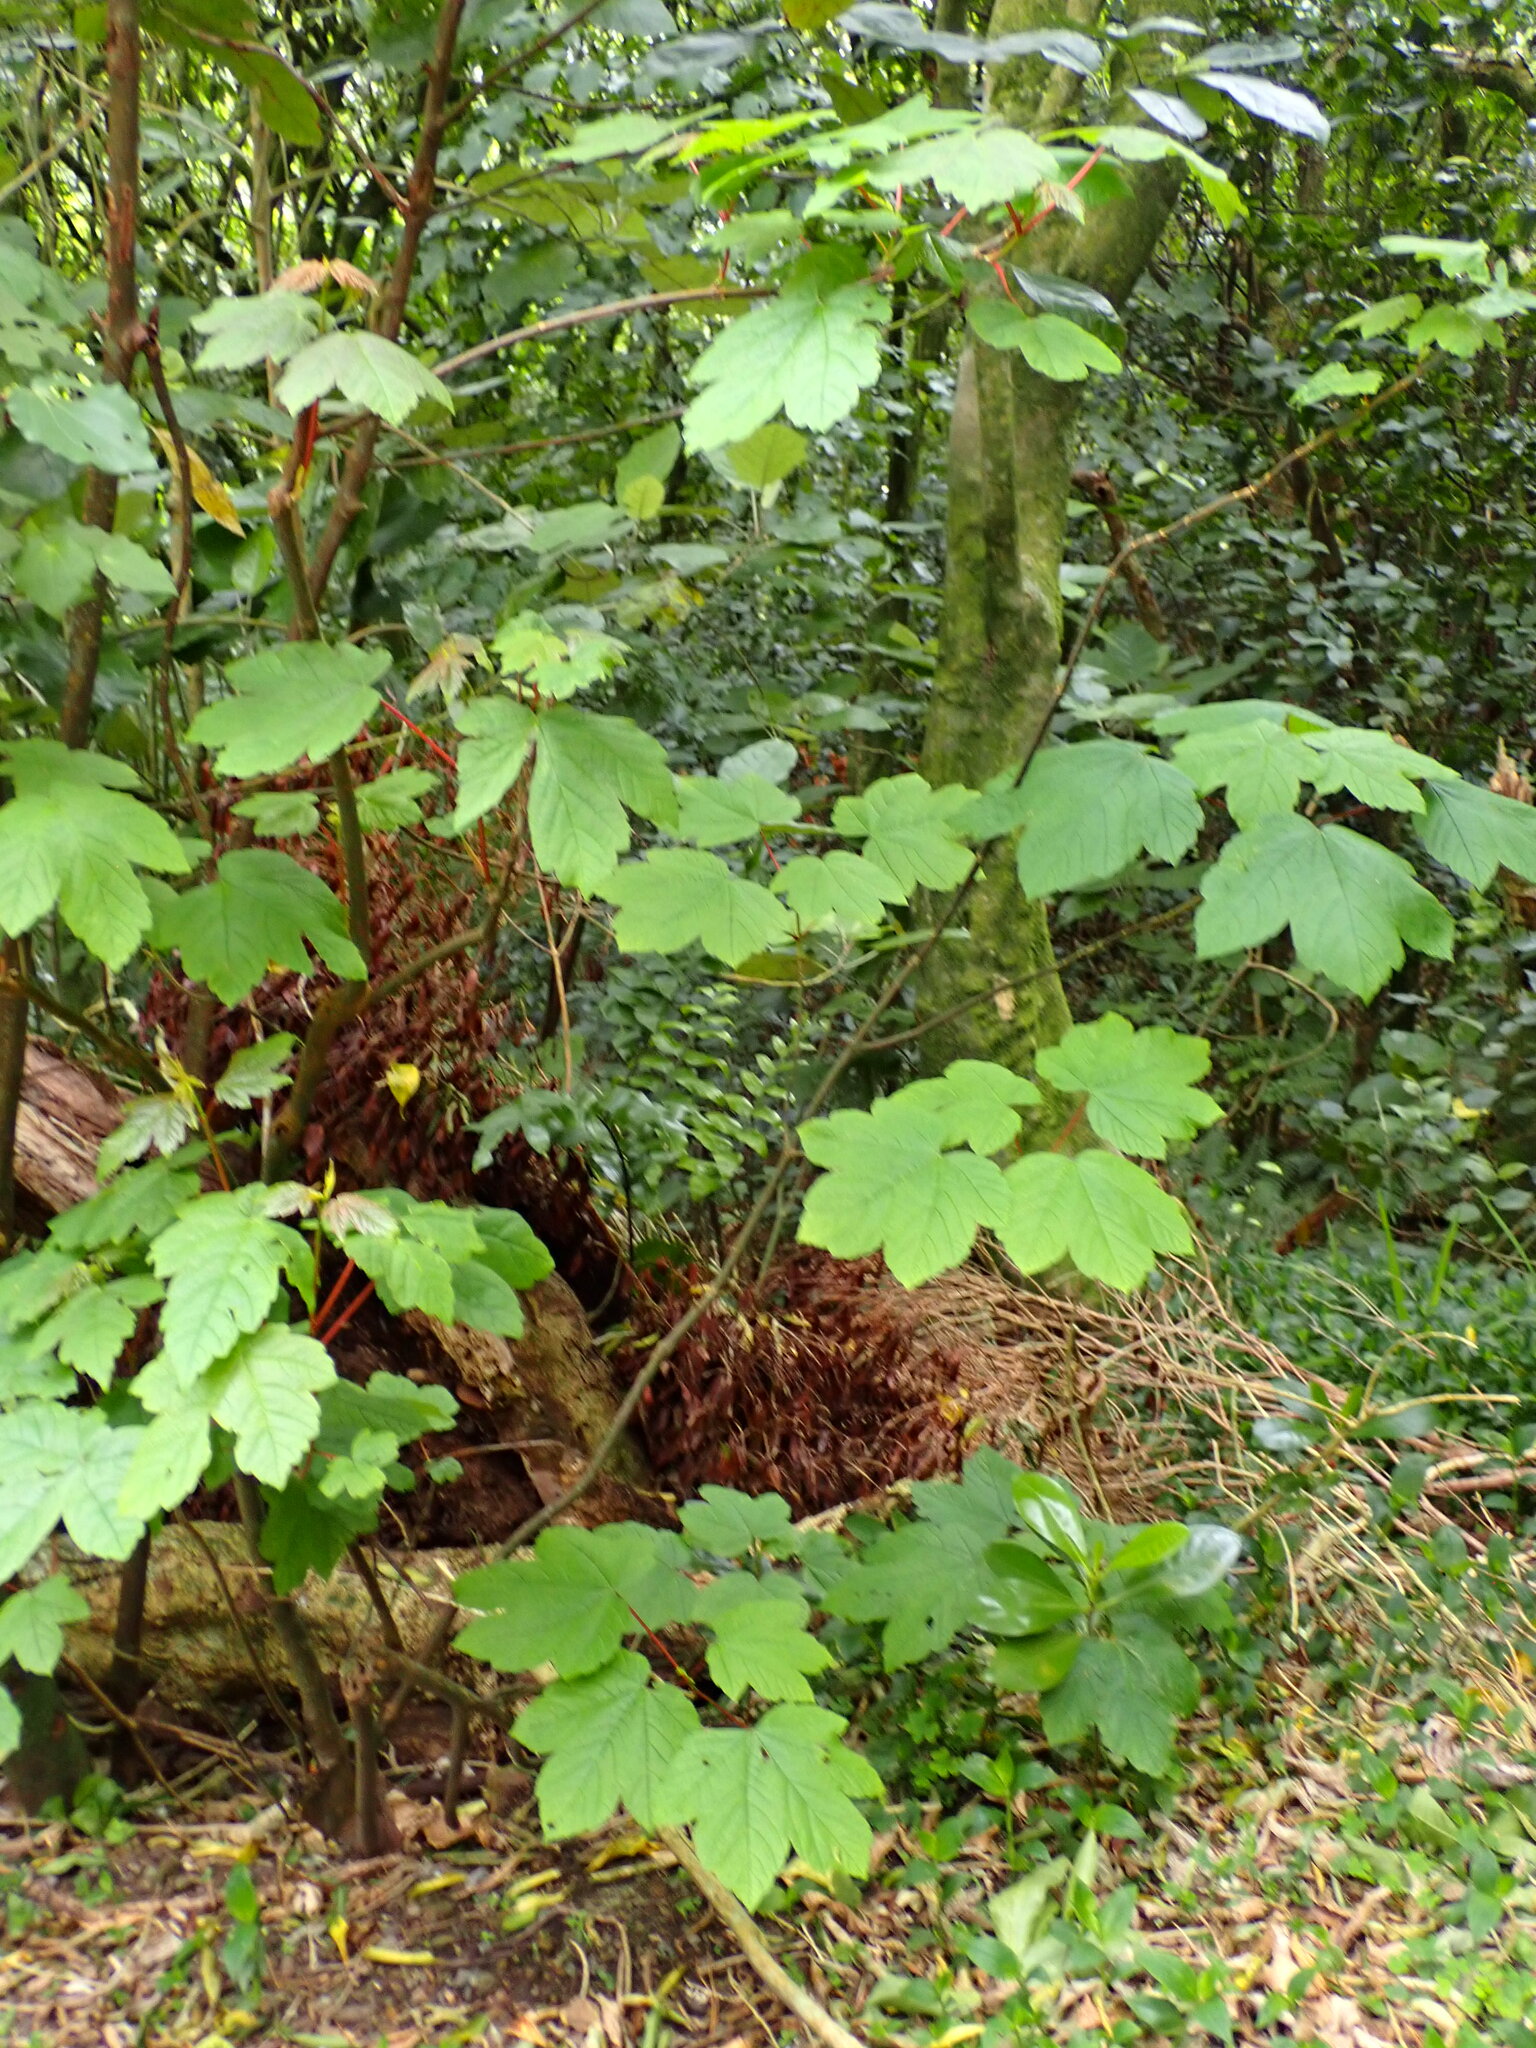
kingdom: Plantae
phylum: Tracheophyta
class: Magnoliopsida
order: Sapindales
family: Sapindaceae
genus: Acer
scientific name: Acer pseudoplatanus
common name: Sycamore
